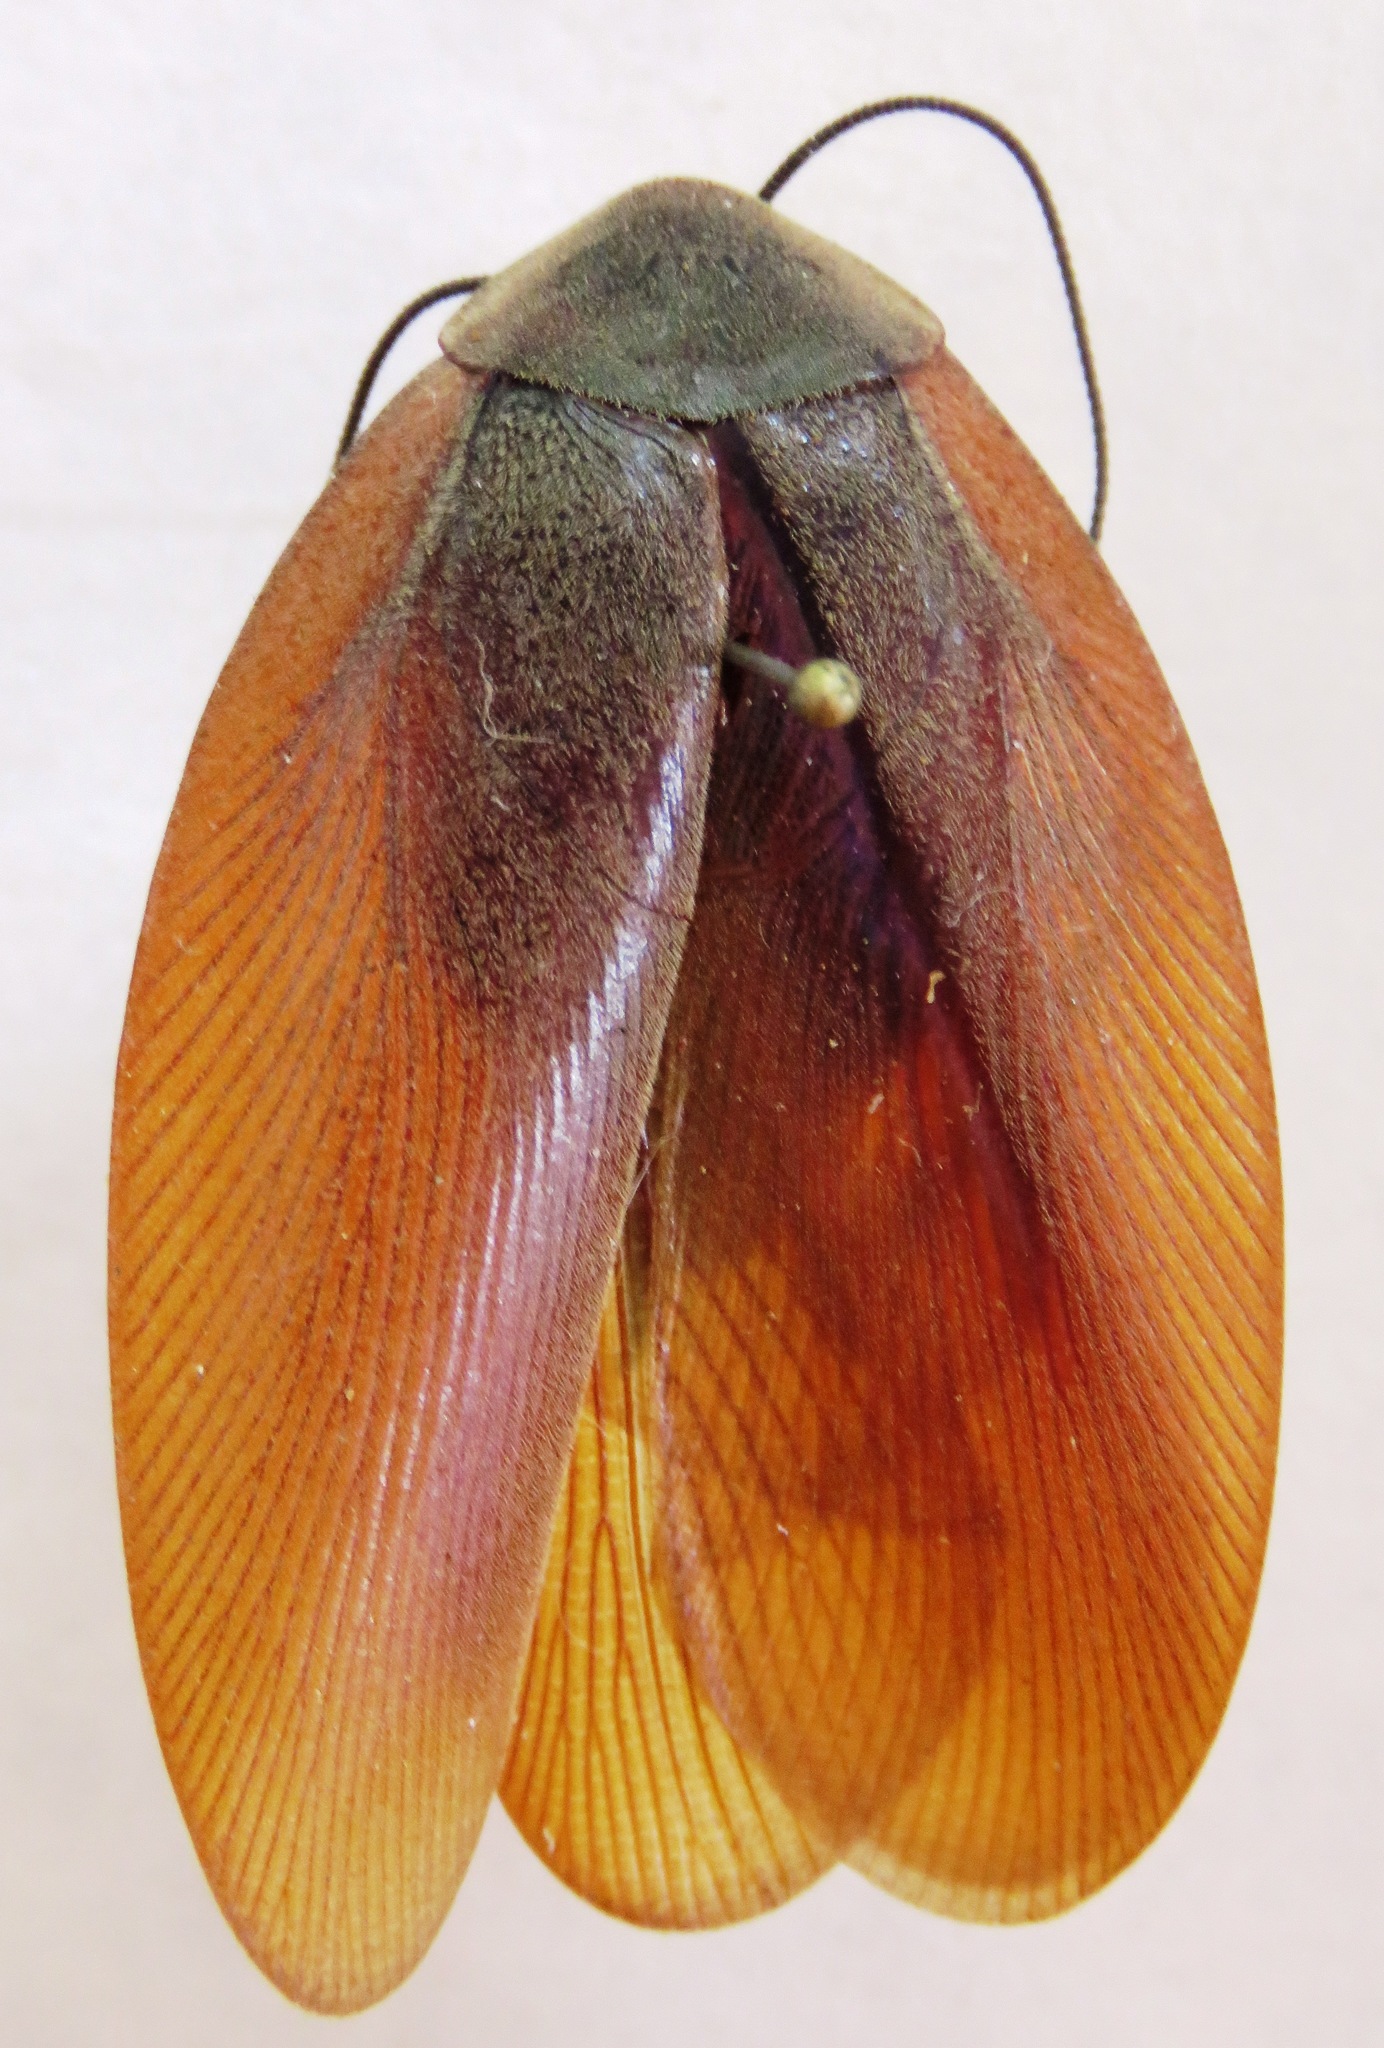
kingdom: Animalia
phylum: Arthropoda
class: Insecta
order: Blattodea
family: Ectobiidae
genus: Nyctibora
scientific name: Nyctibora noctivaga
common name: Great brown cockroach
